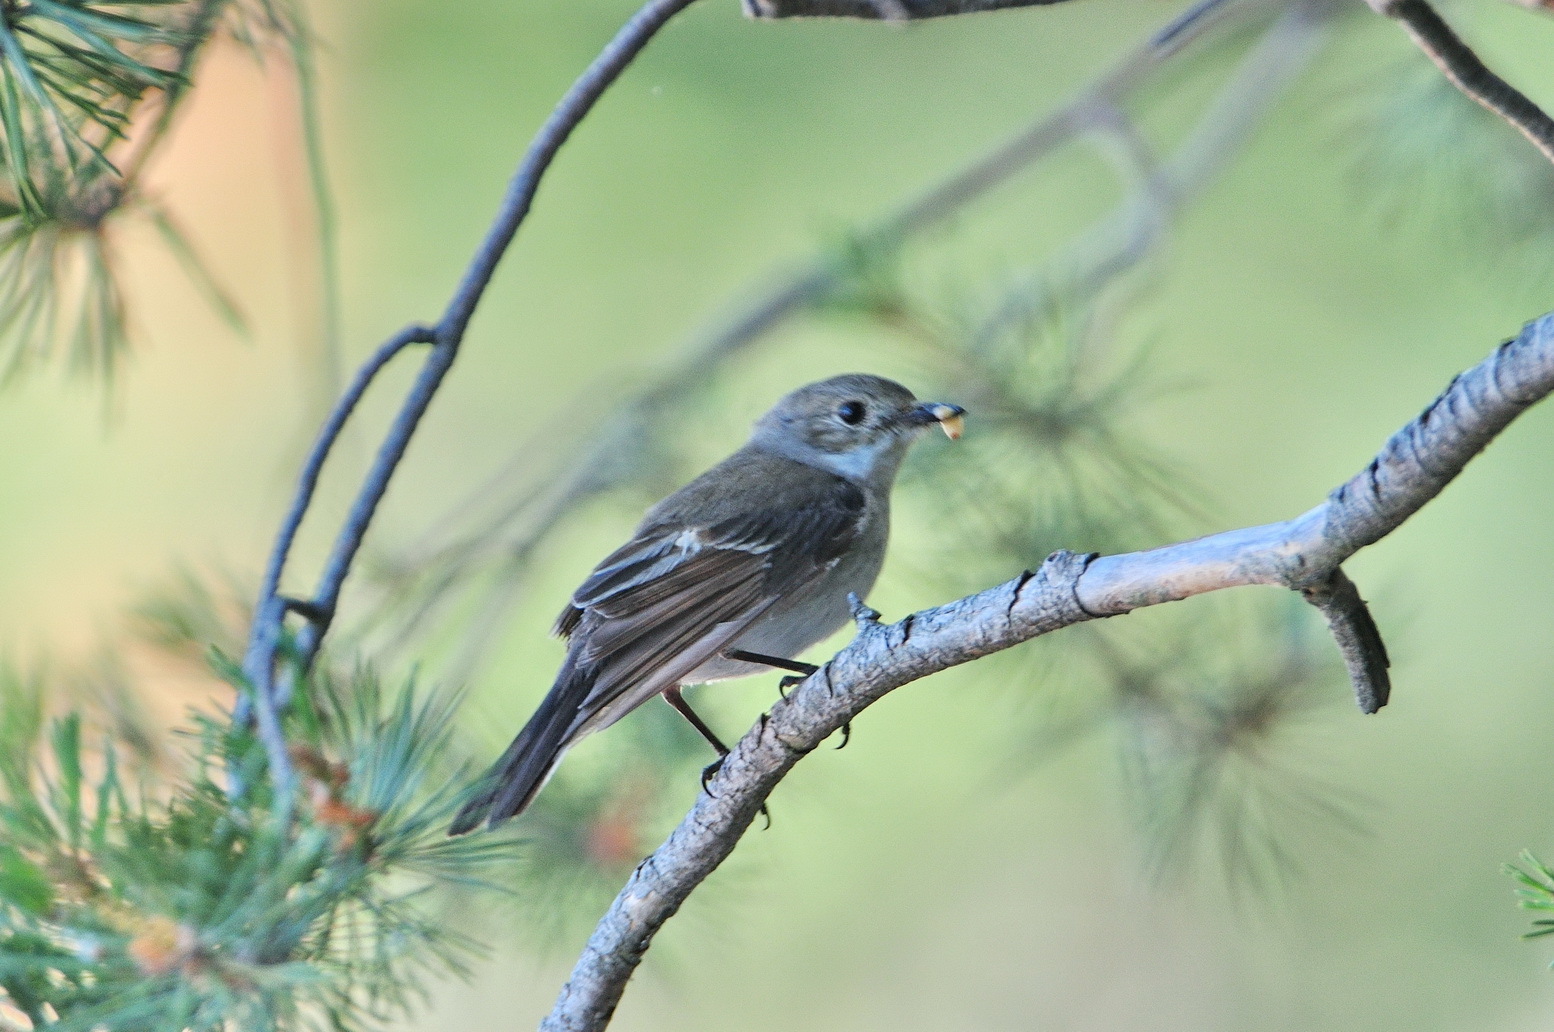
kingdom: Animalia
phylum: Chordata
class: Aves
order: Passeriformes
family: Muscicapidae
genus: Ficedula
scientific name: Ficedula hypoleuca
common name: European pied flycatcher
